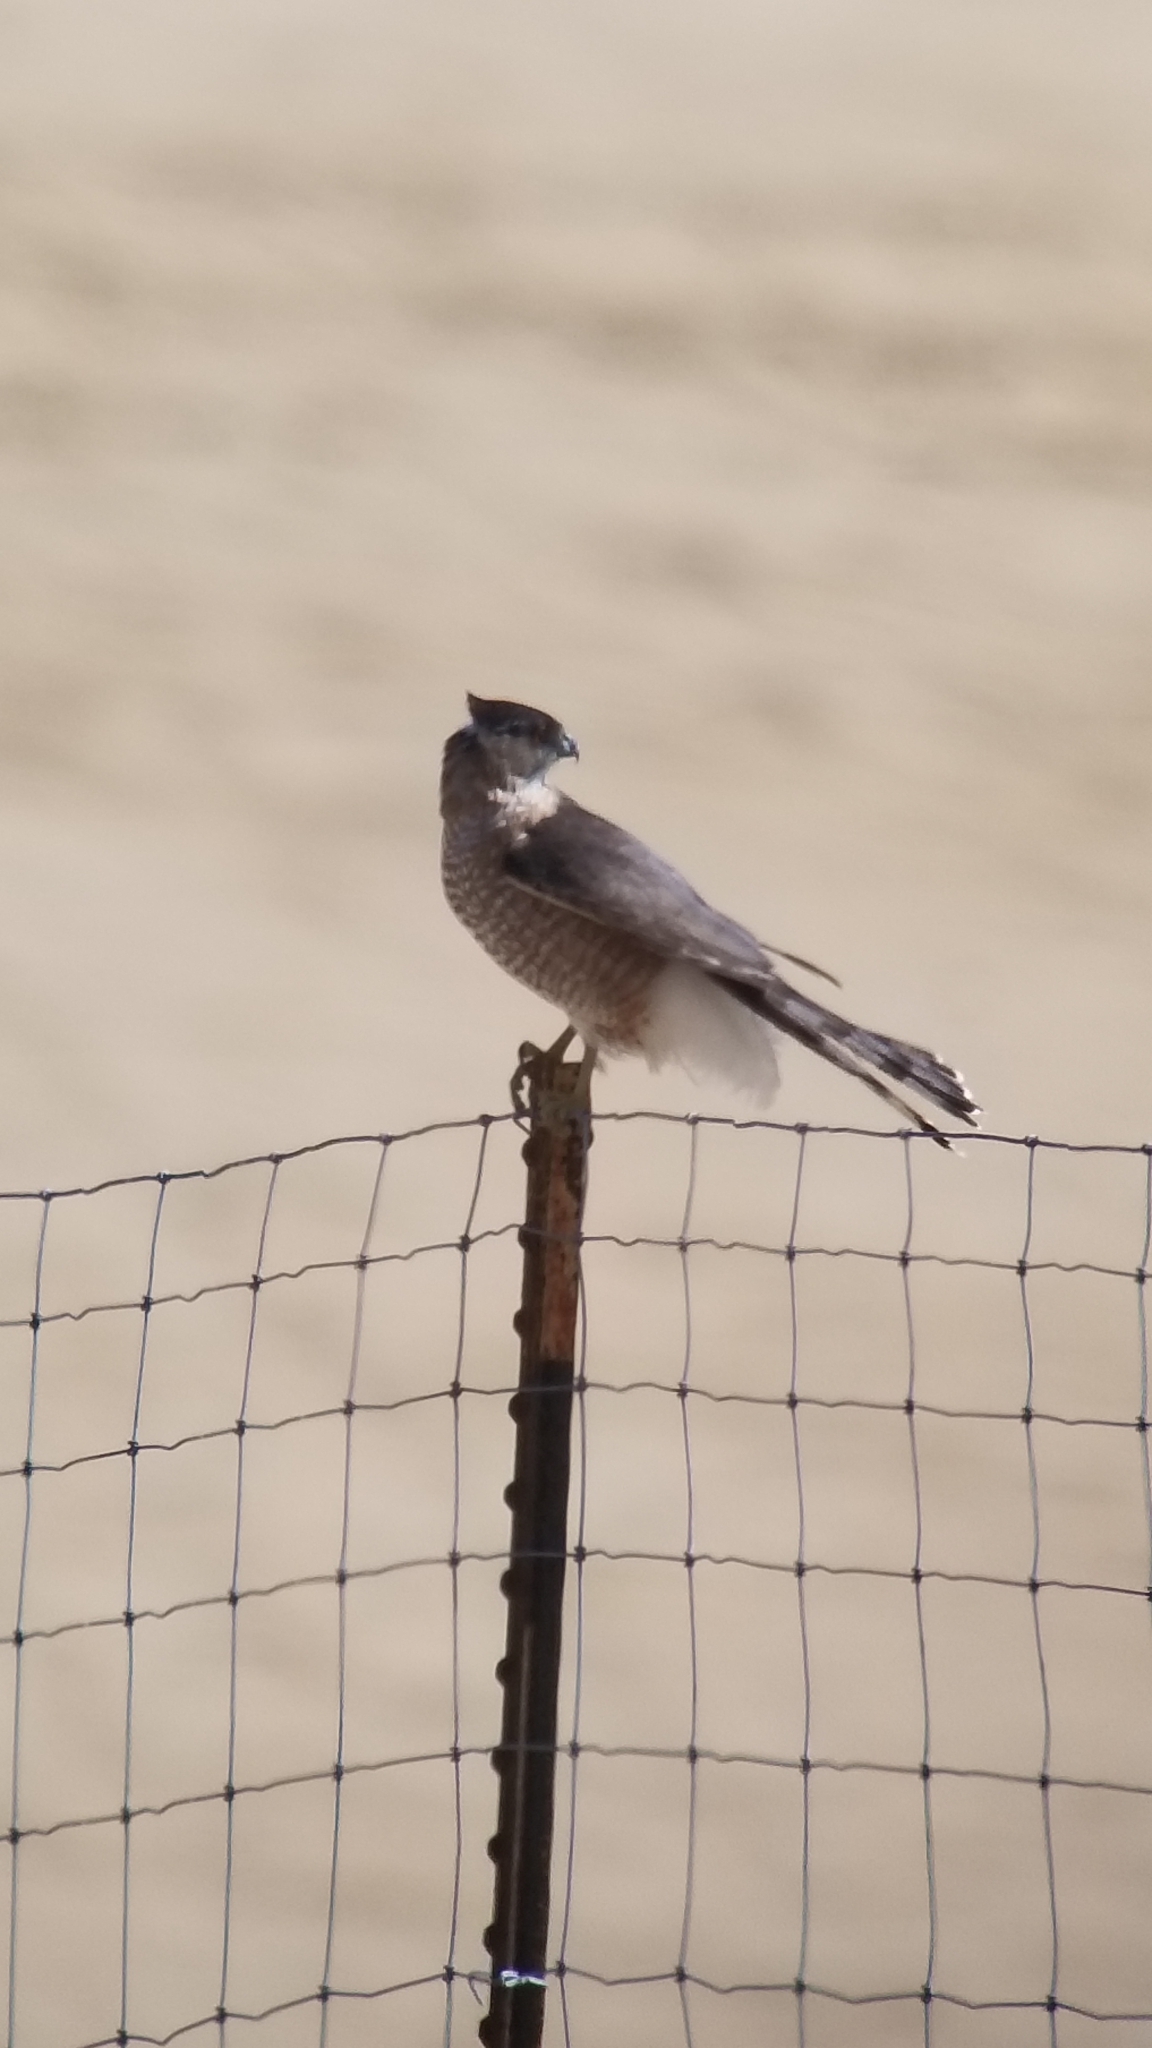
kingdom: Animalia
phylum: Chordata
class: Aves
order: Accipitriformes
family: Accipitridae
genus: Accipiter
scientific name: Accipiter cooperii
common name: Cooper's hawk
